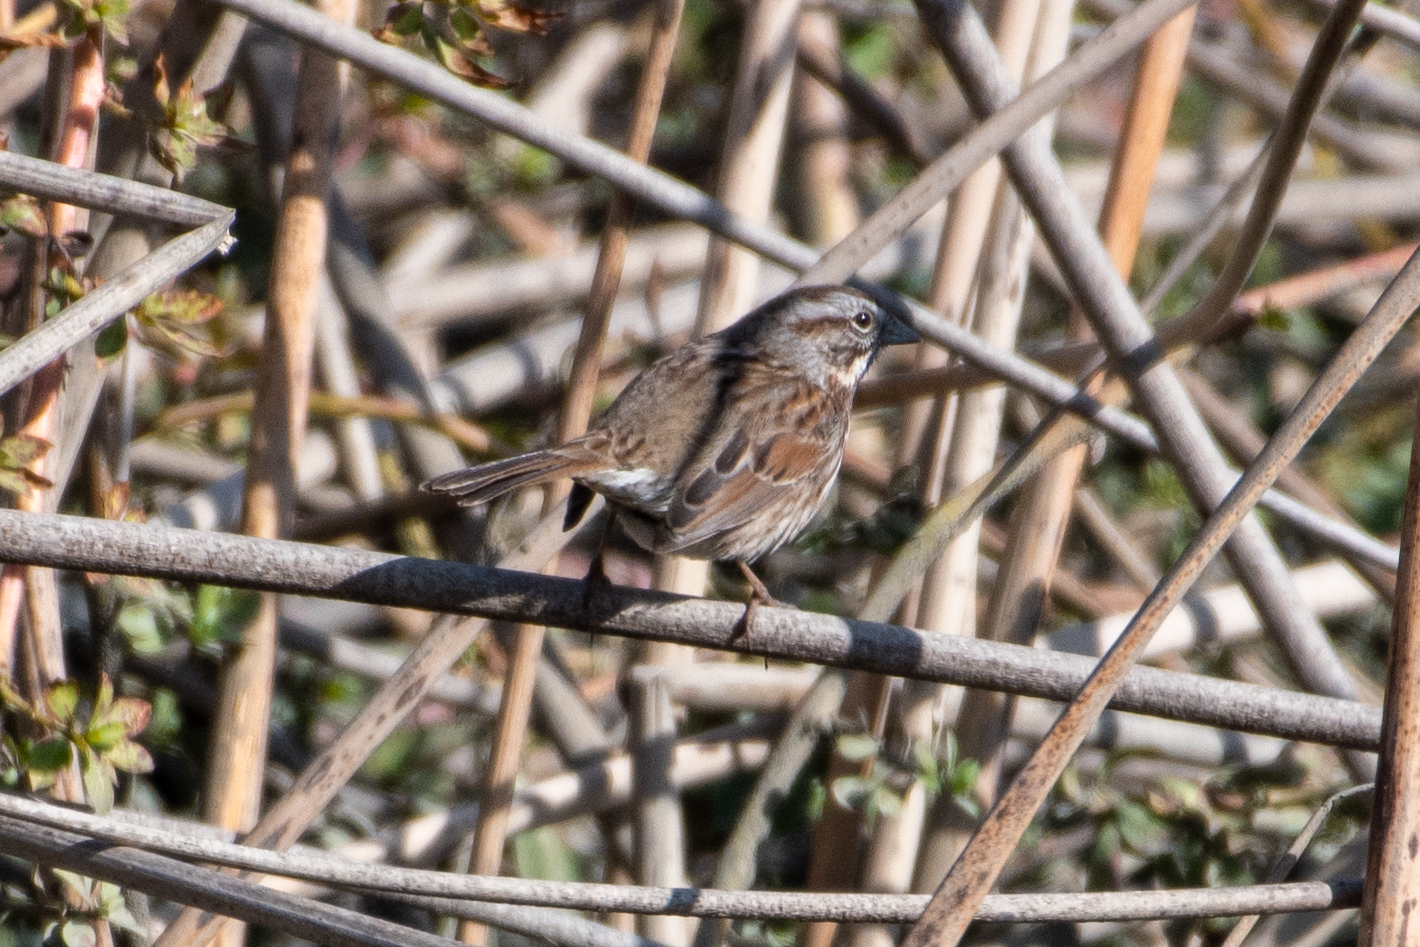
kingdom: Animalia
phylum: Chordata
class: Aves
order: Passeriformes
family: Passerellidae
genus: Melospiza
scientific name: Melospiza melodia
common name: Song sparrow
